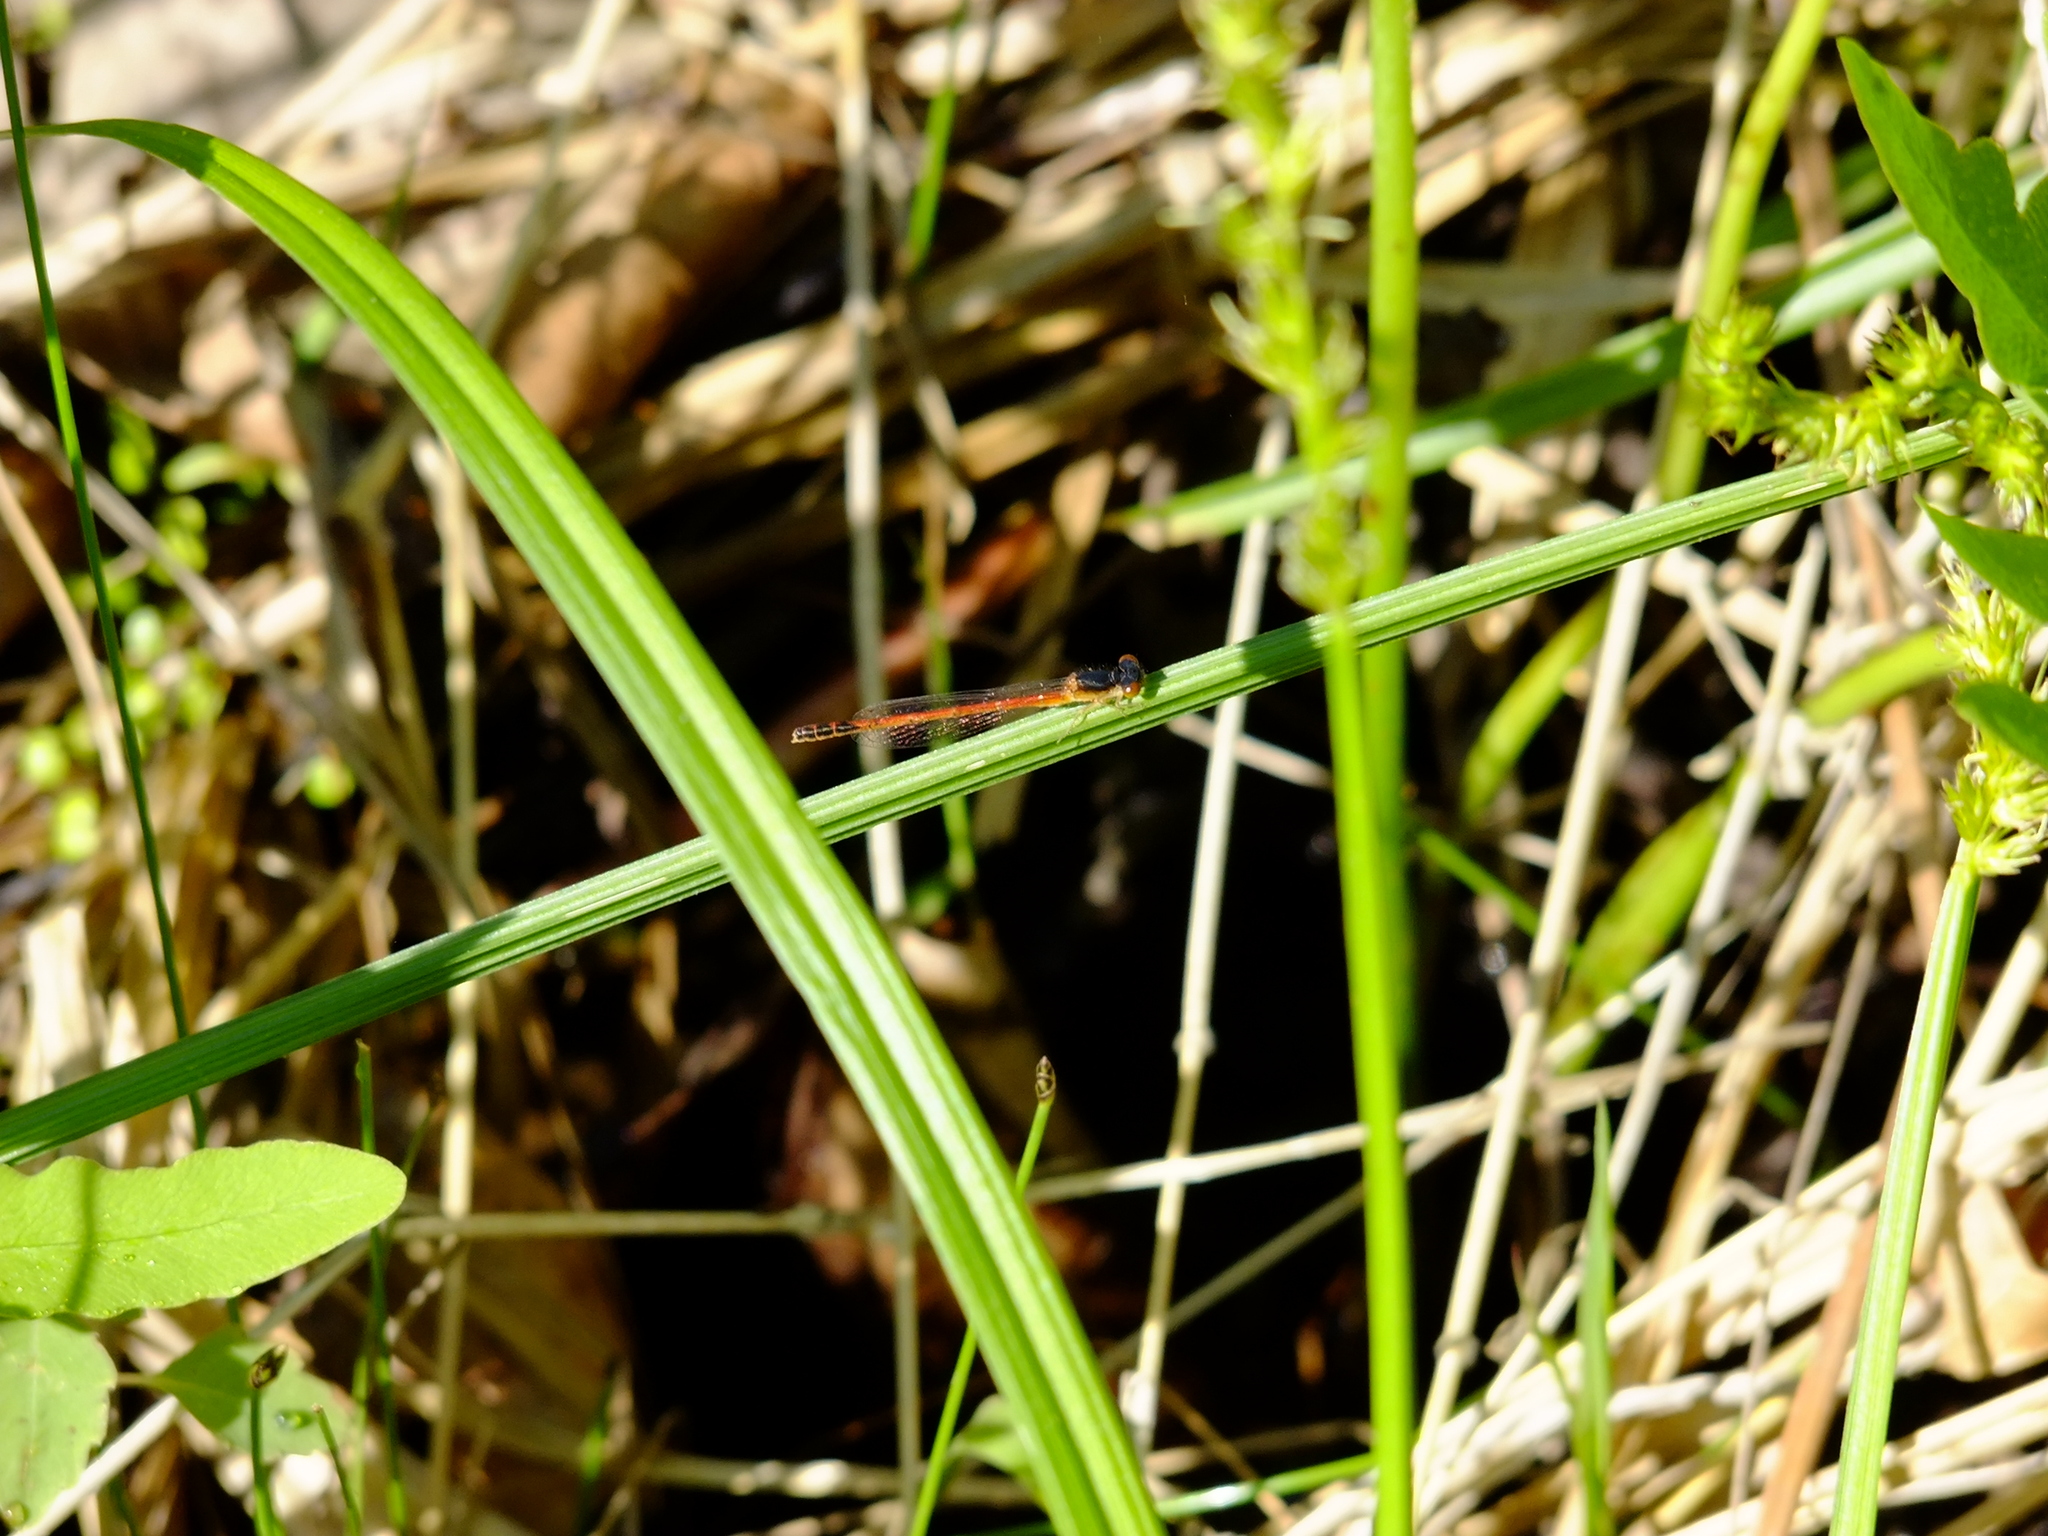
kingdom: Animalia
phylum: Arthropoda
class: Insecta
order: Odonata
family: Coenagrionidae
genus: Amphiagrion
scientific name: Amphiagrion saucium
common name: Eastern red damsel
